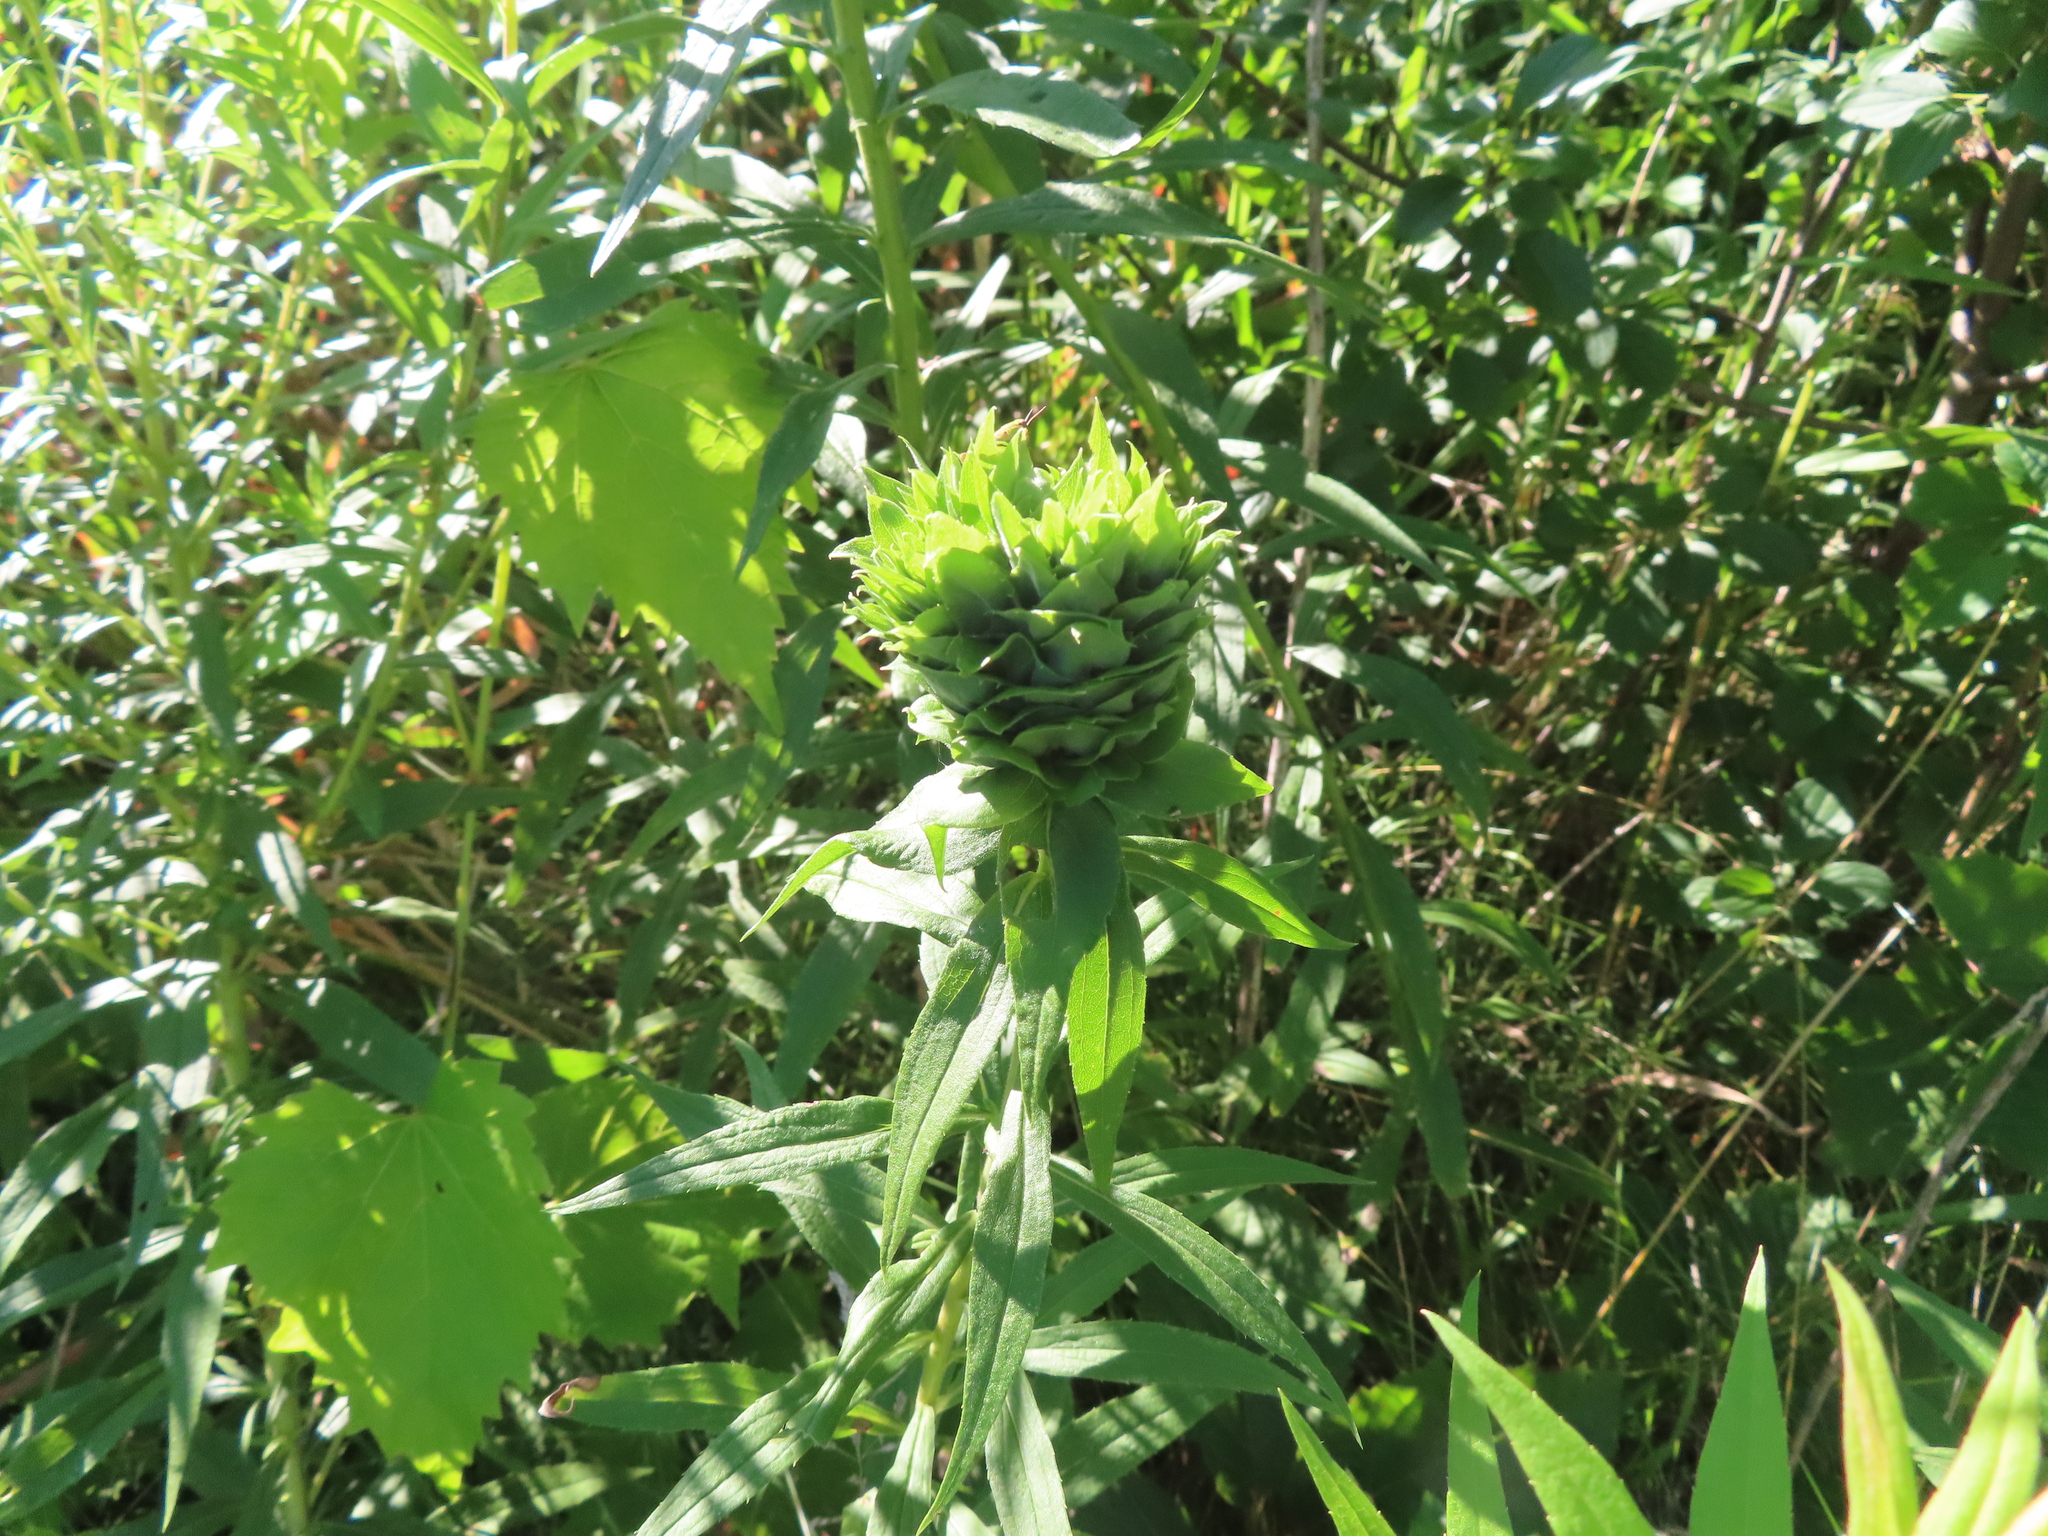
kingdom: Animalia
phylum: Arthropoda
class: Insecta
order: Diptera
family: Cecidomyiidae
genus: Rhopalomyia
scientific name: Rhopalomyia solidaginis
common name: Goldenrod bunch gall midge
